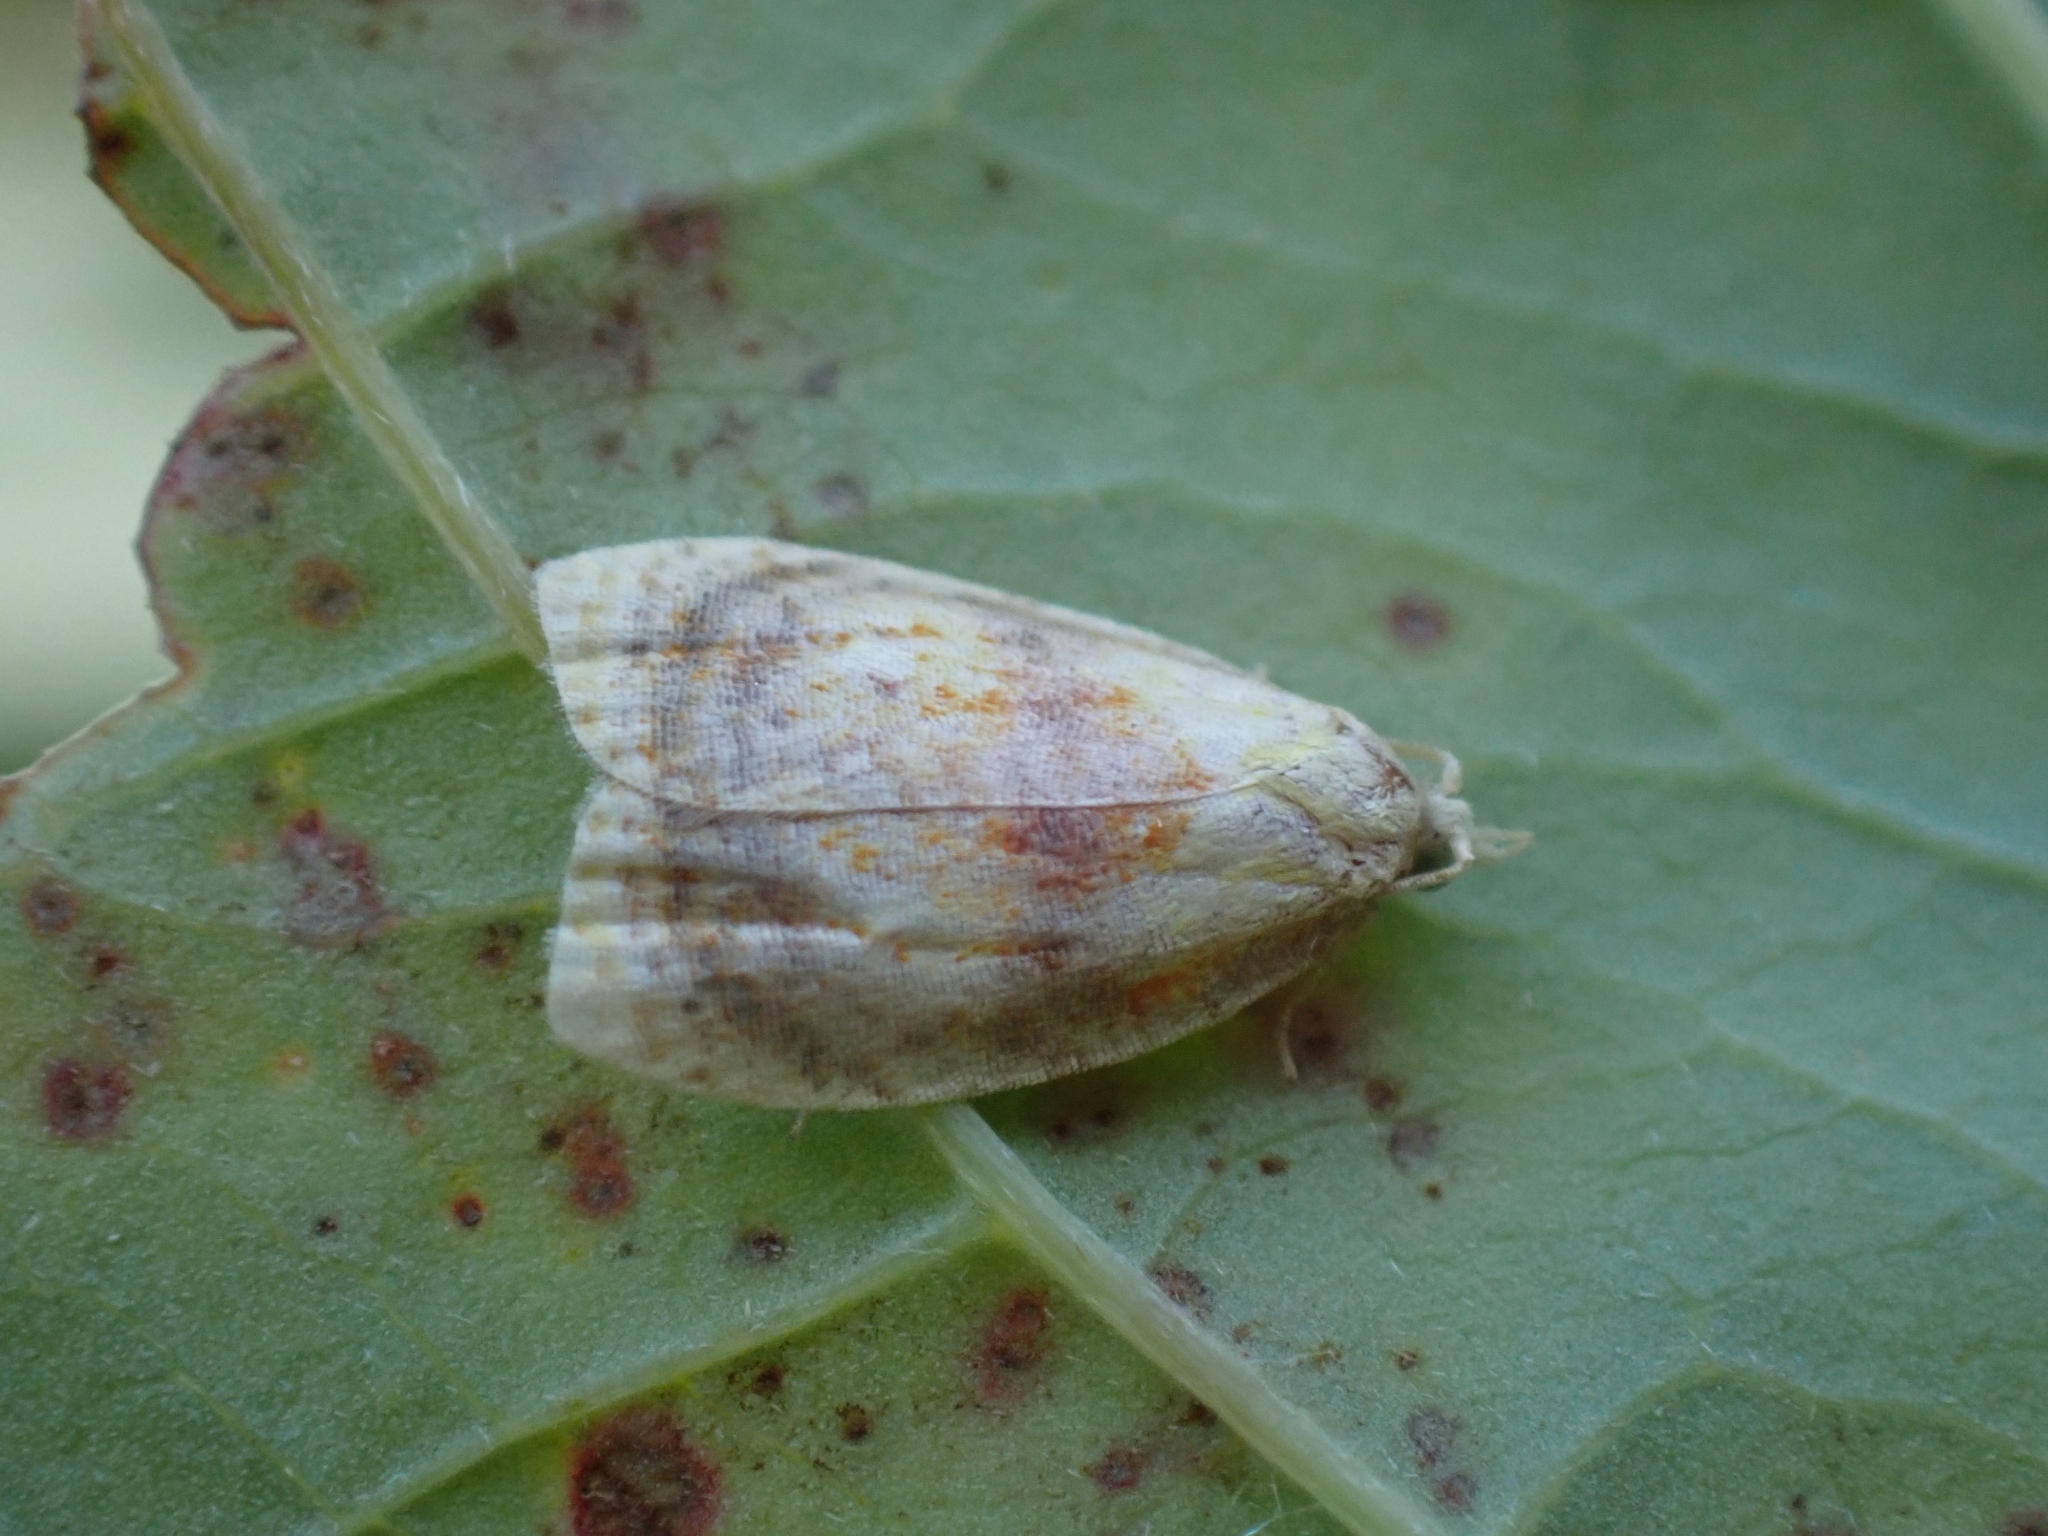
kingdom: Animalia
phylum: Arthropoda
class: Insecta
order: Lepidoptera
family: Tortricidae
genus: Acleris
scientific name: Acleris curvalana
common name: Blueberry leaftier moth
